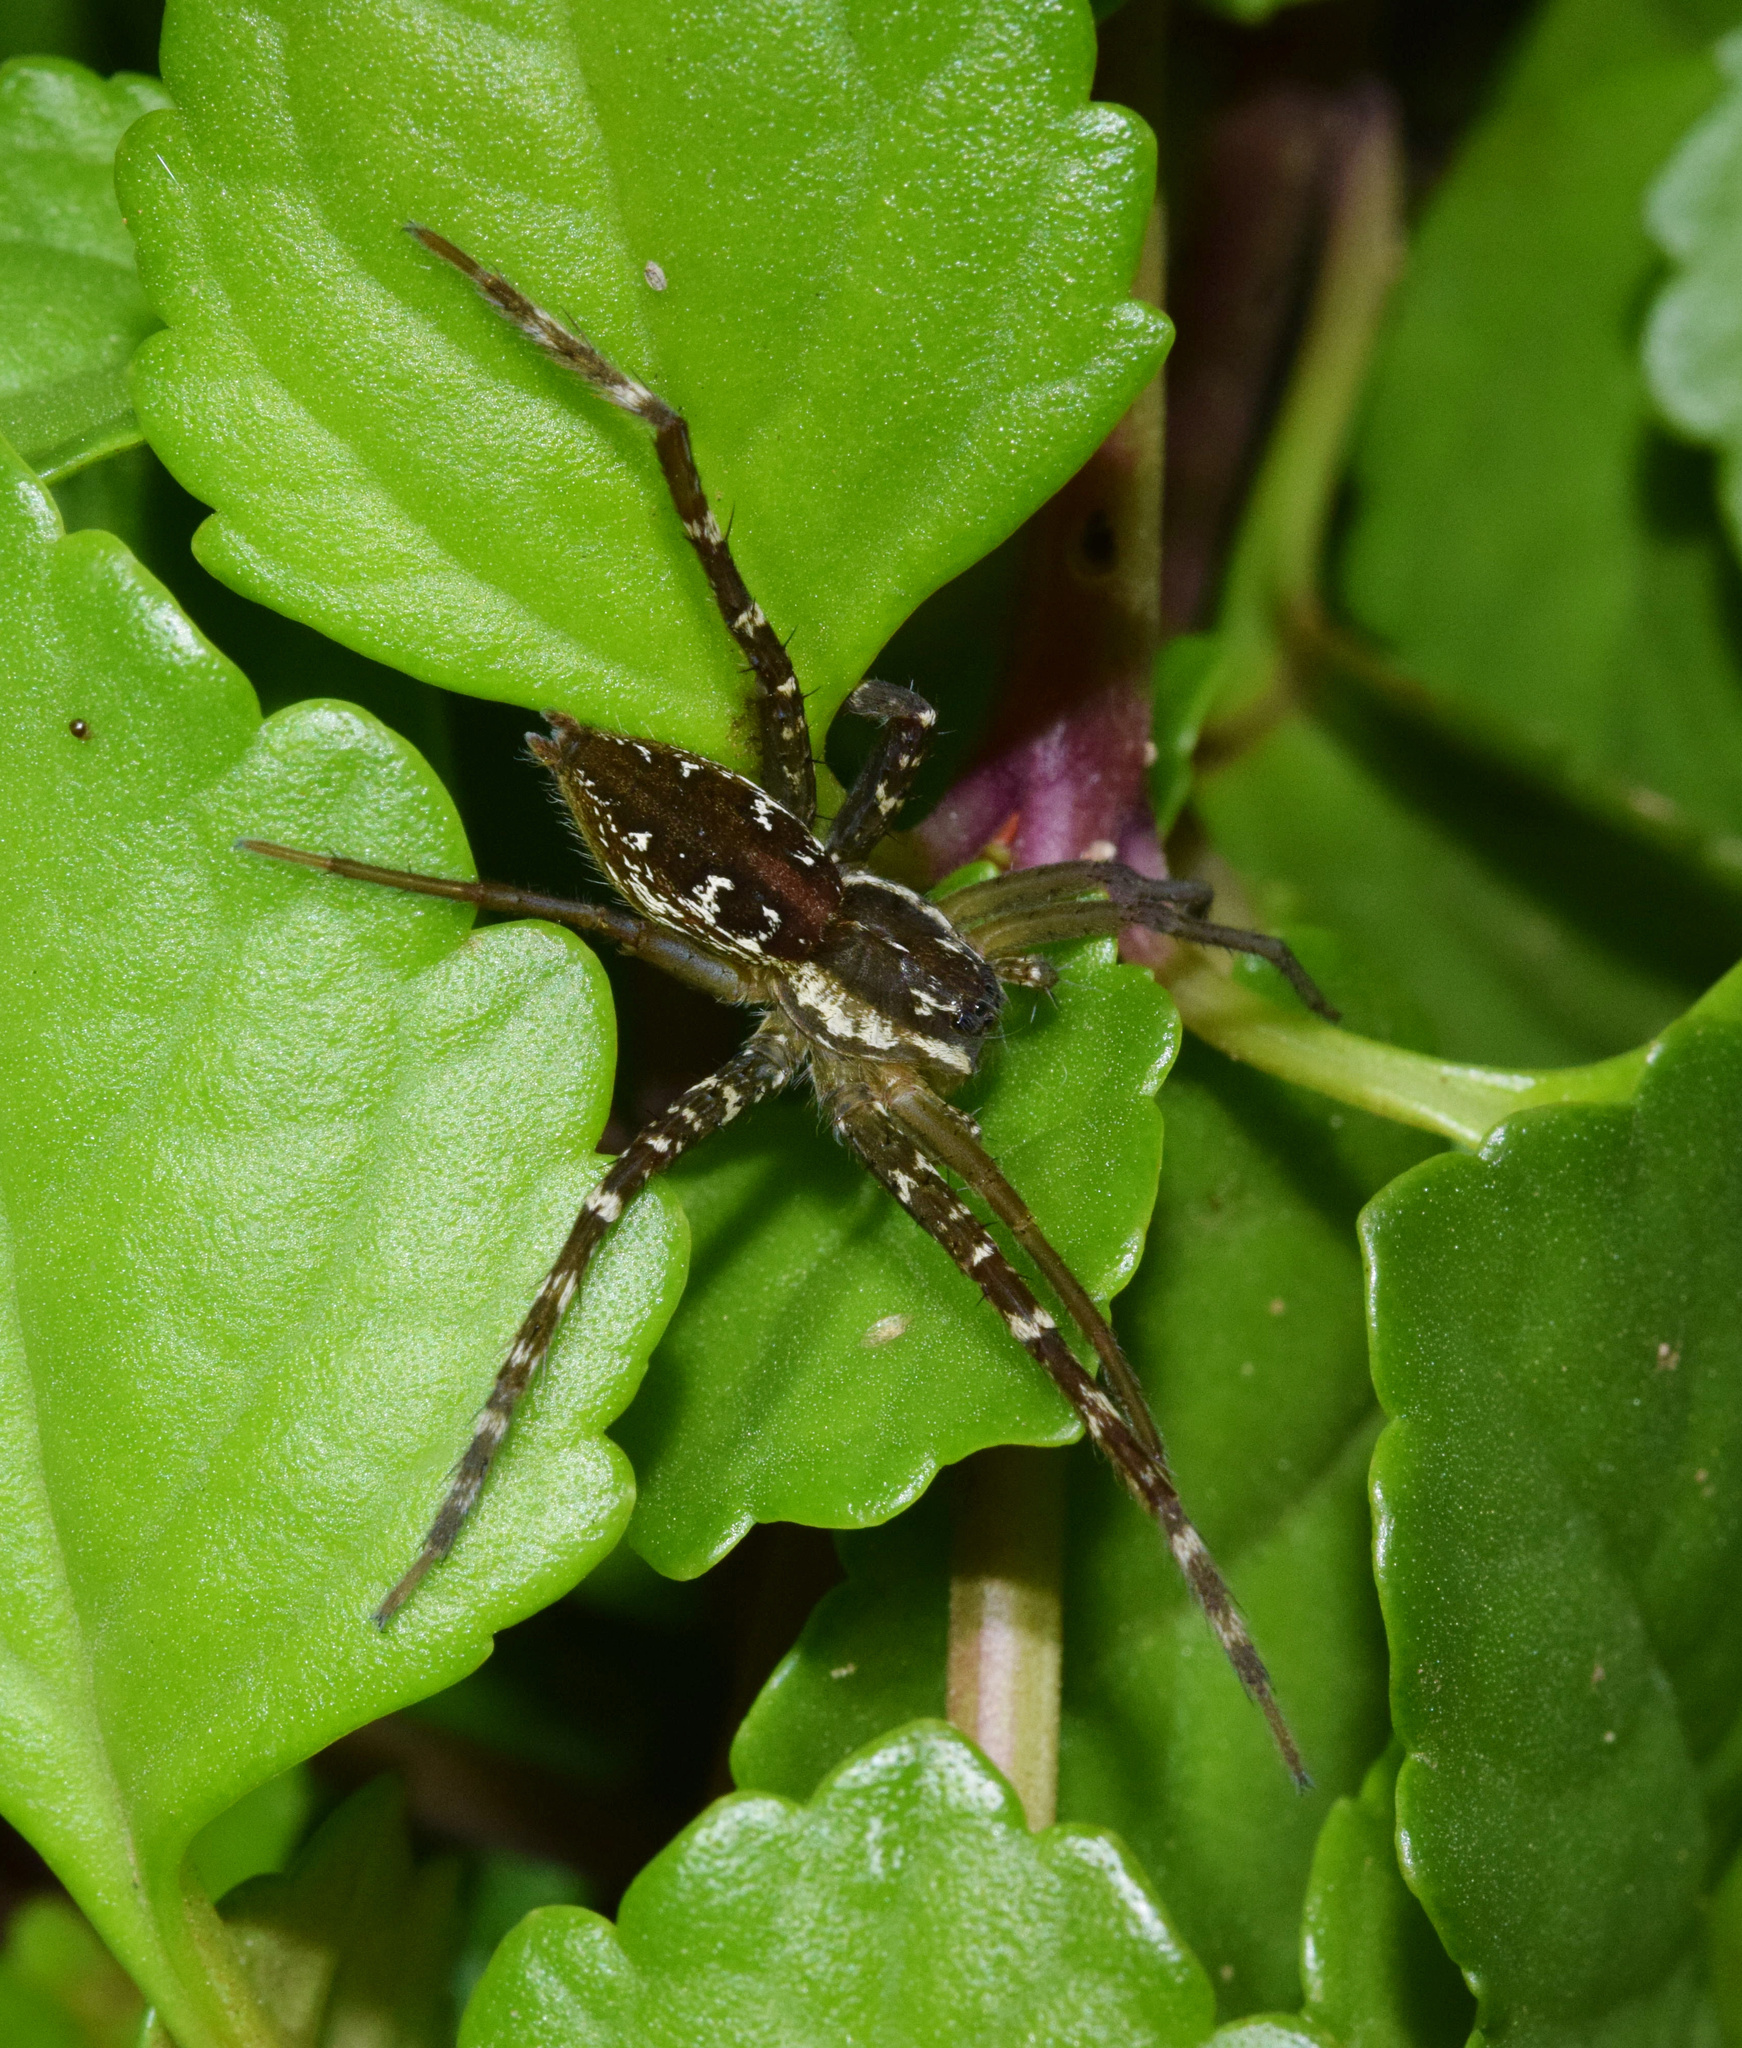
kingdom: Animalia
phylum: Arthropoda
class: Arachnida
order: Araneae
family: Pisauridae
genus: Nilus
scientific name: Nilus curtus
